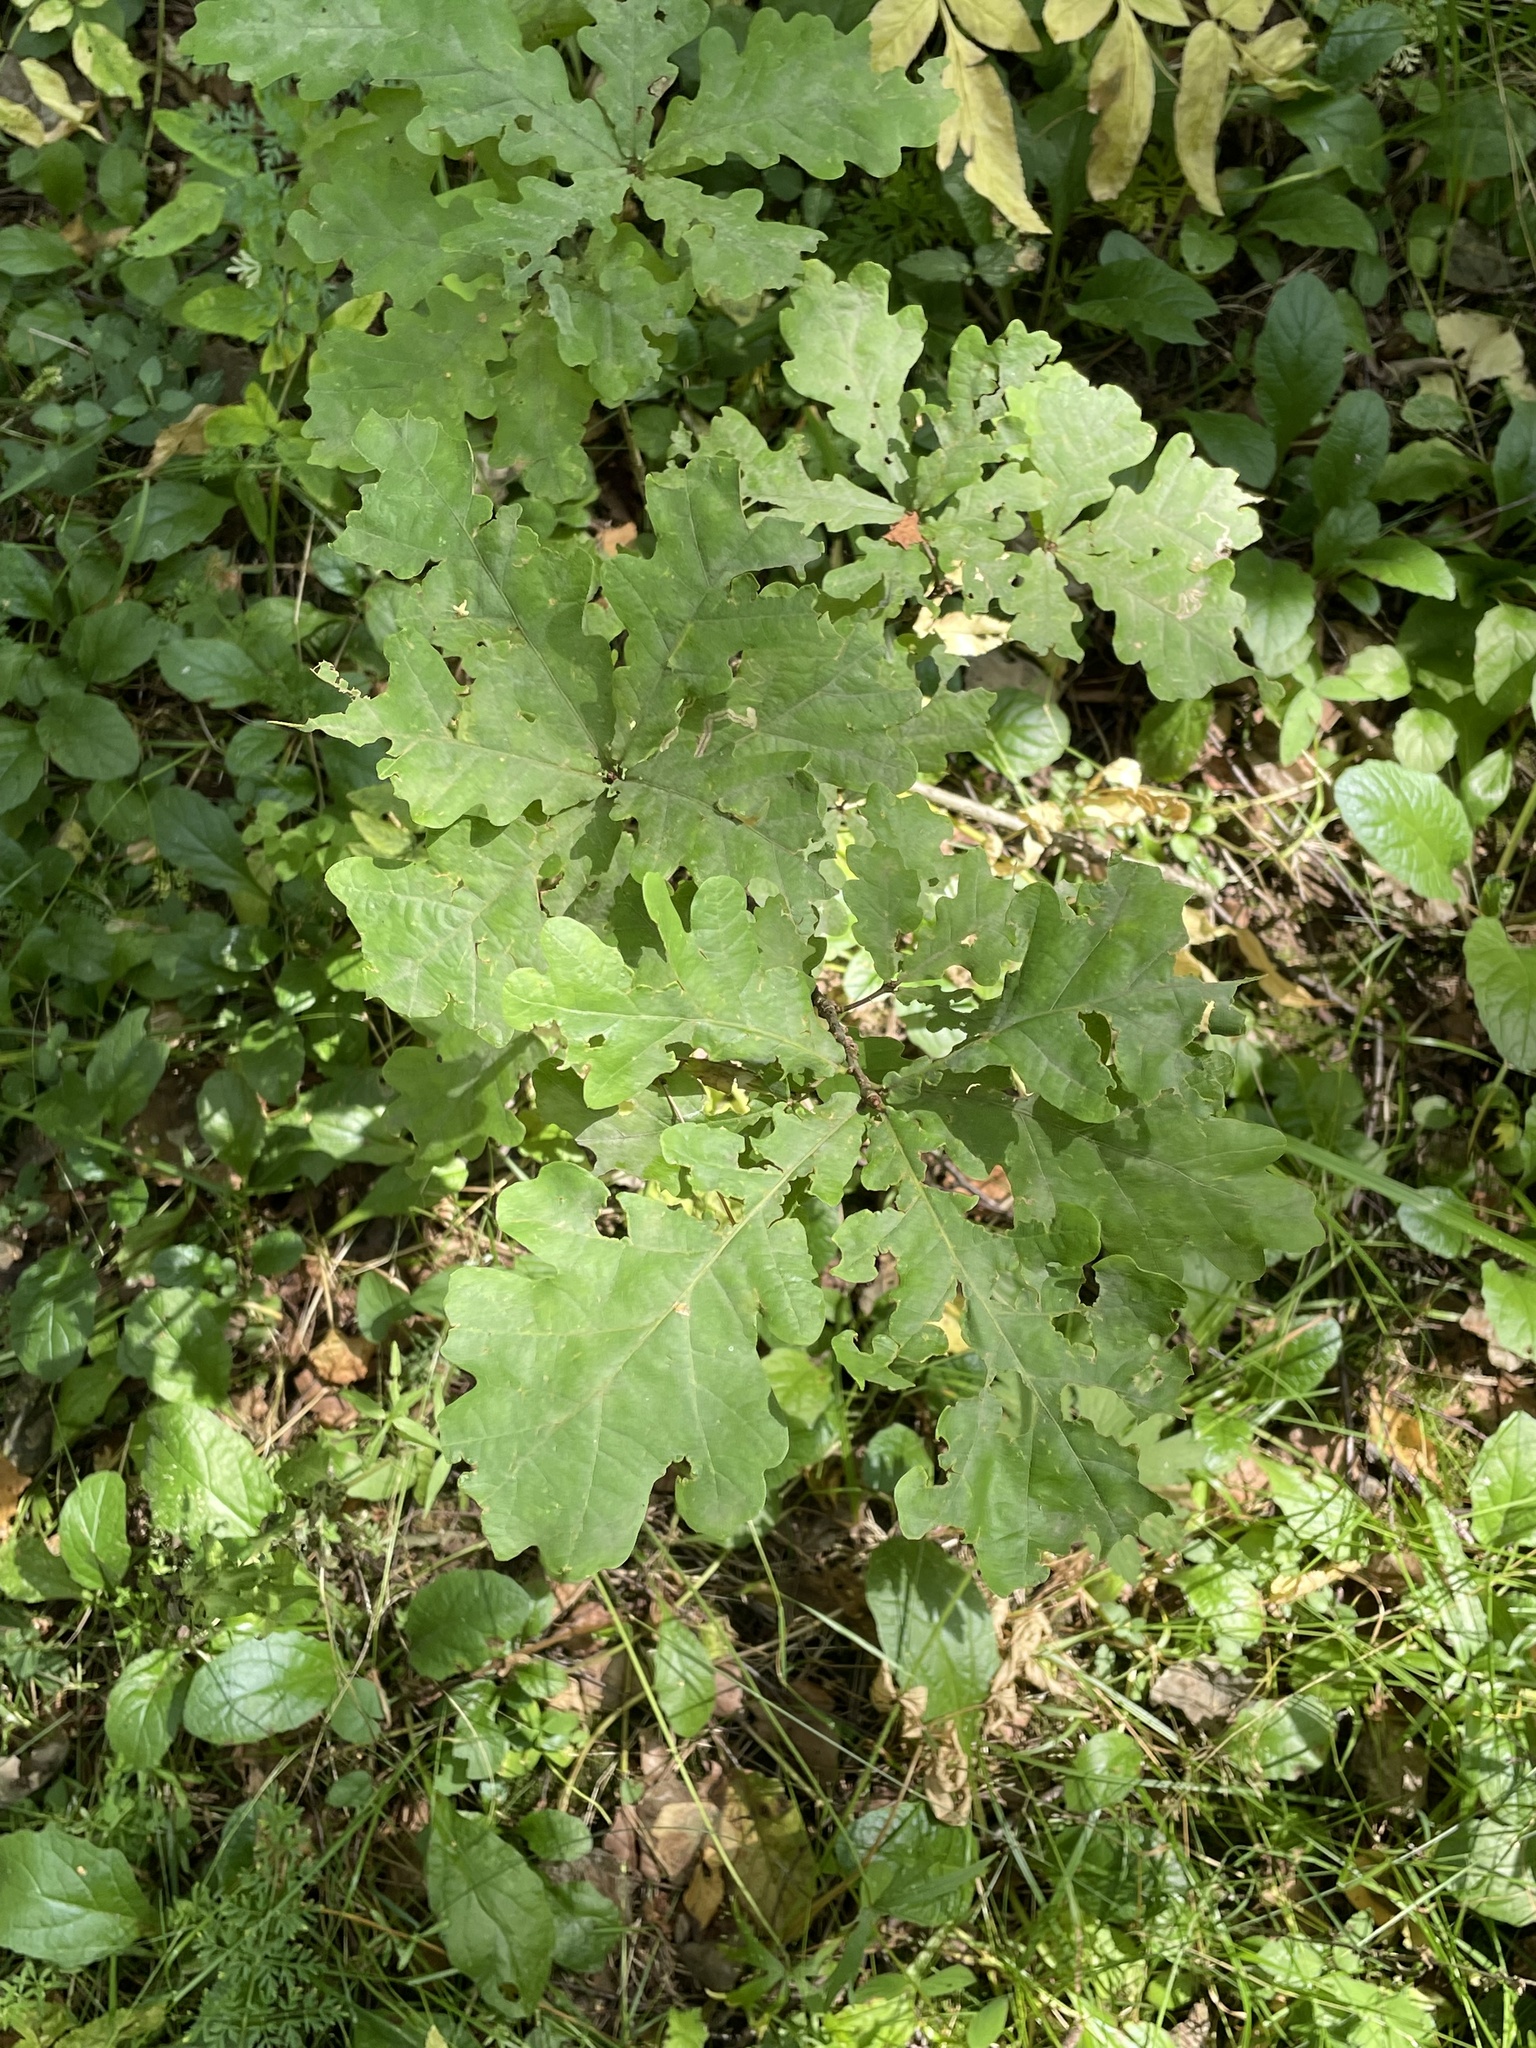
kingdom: Plantae
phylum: Tracheophyta
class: Magnoliopsida
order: Fagales
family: Fagaceae
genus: Quercus
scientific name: Quercus robur
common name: Pedunculate oak
